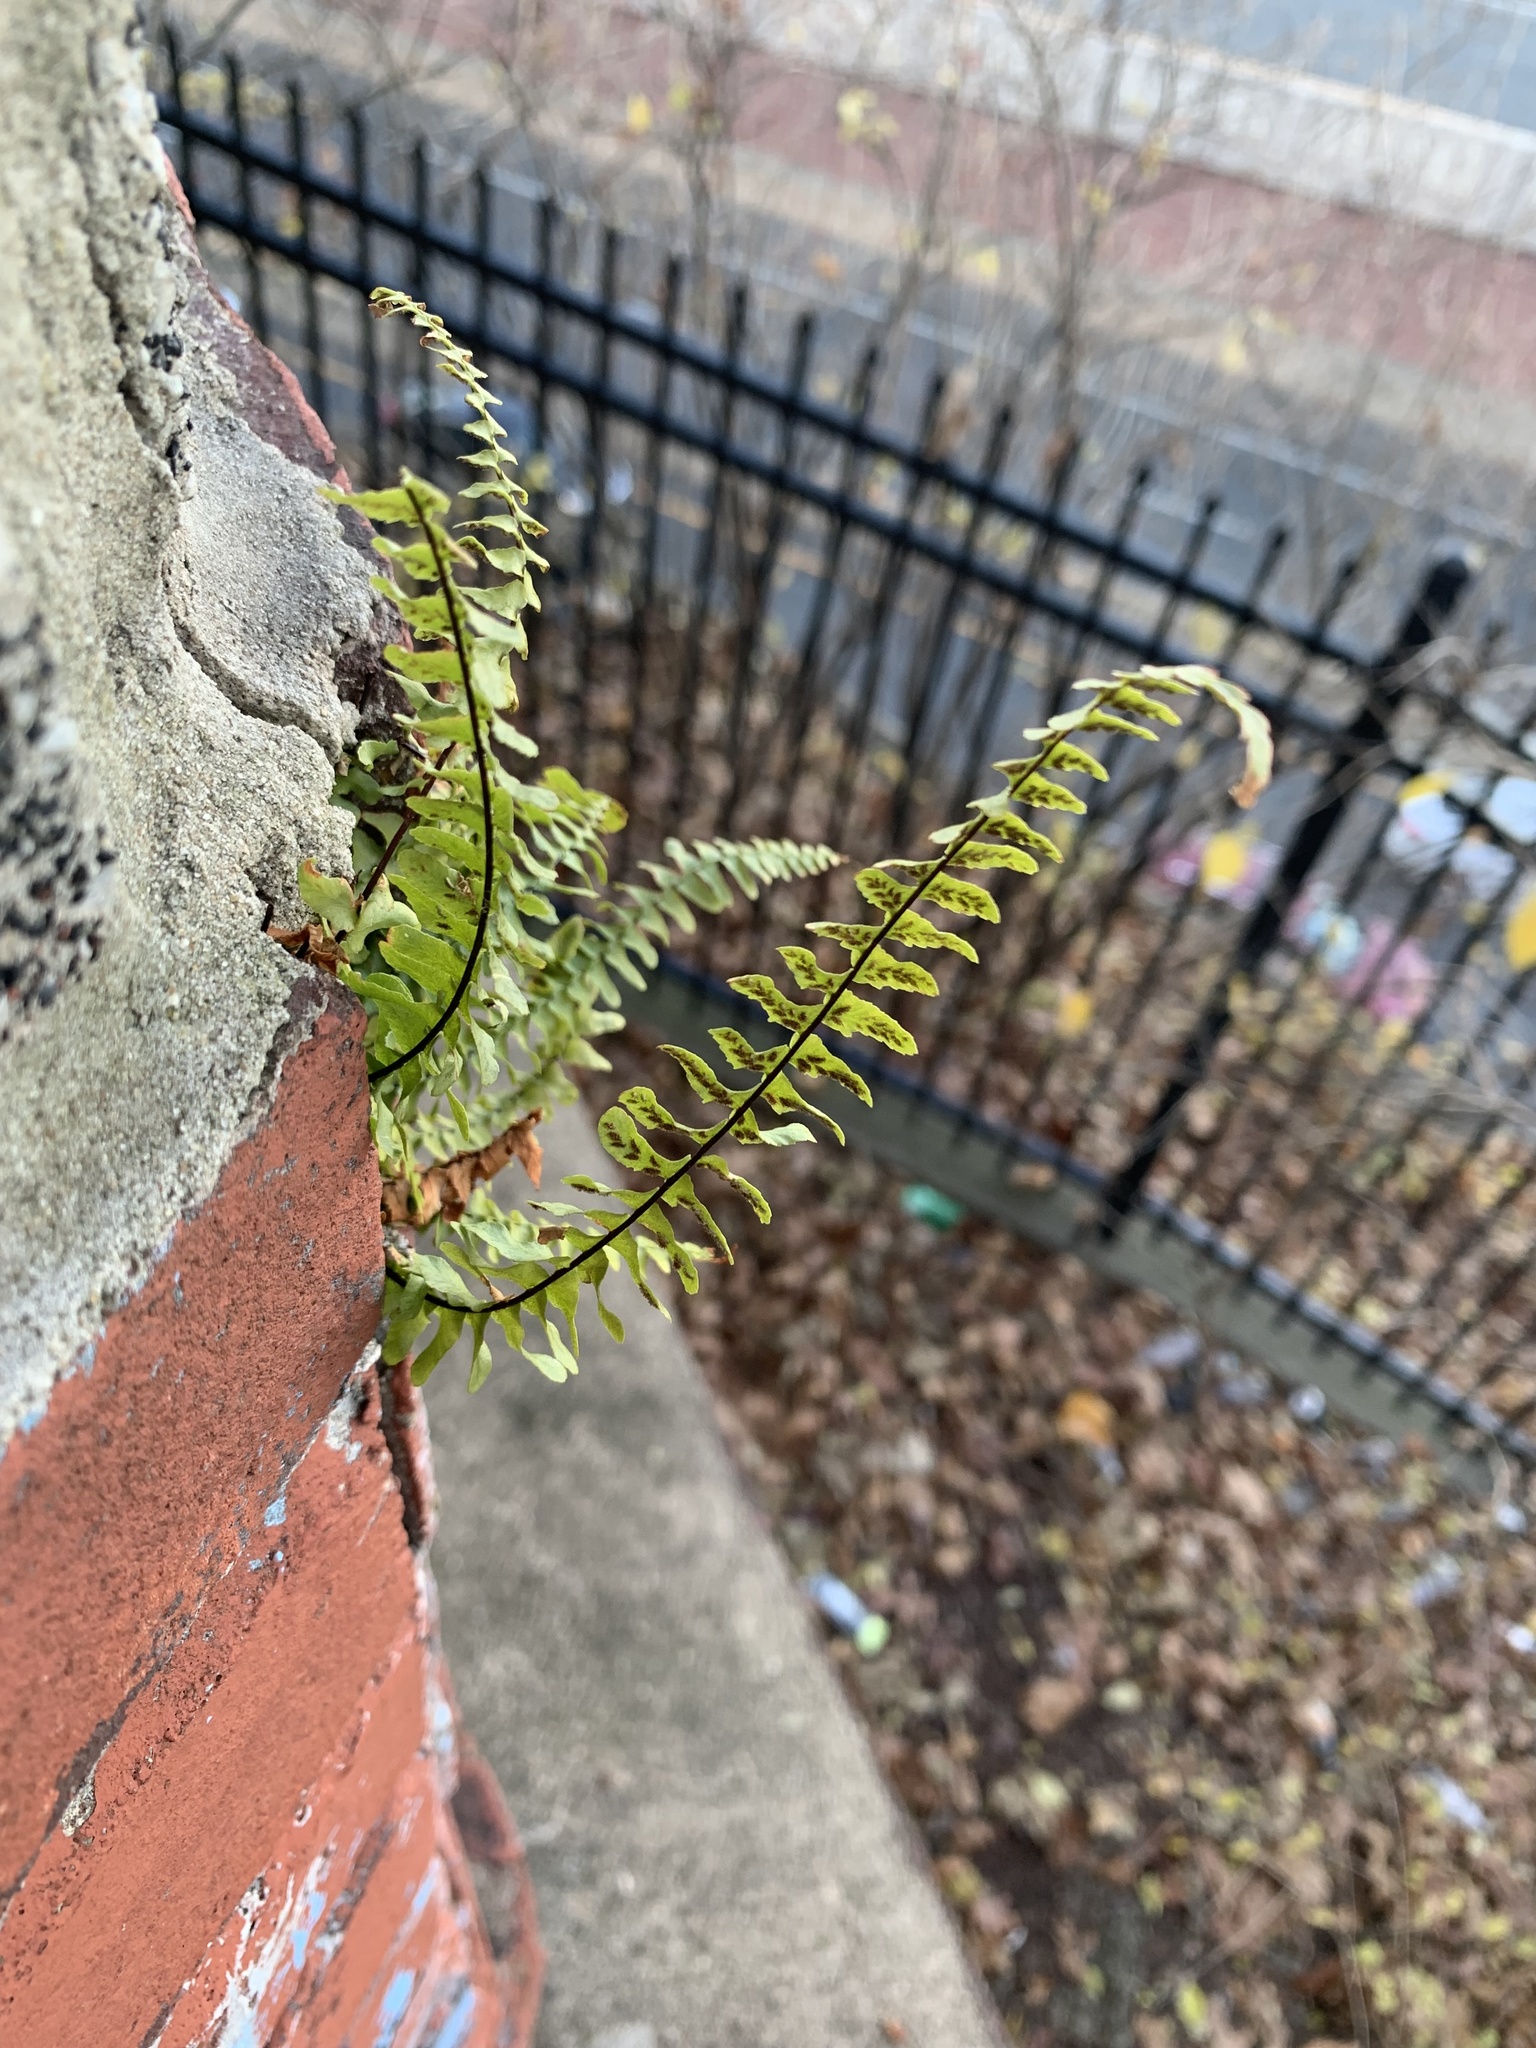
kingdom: Plantae
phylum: Tracheophyta
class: Polypodiopsida
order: Polypodiales
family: Aspleniaceae
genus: Asplenium
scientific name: Asplenium platyneuron
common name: Ebony spleenwort
